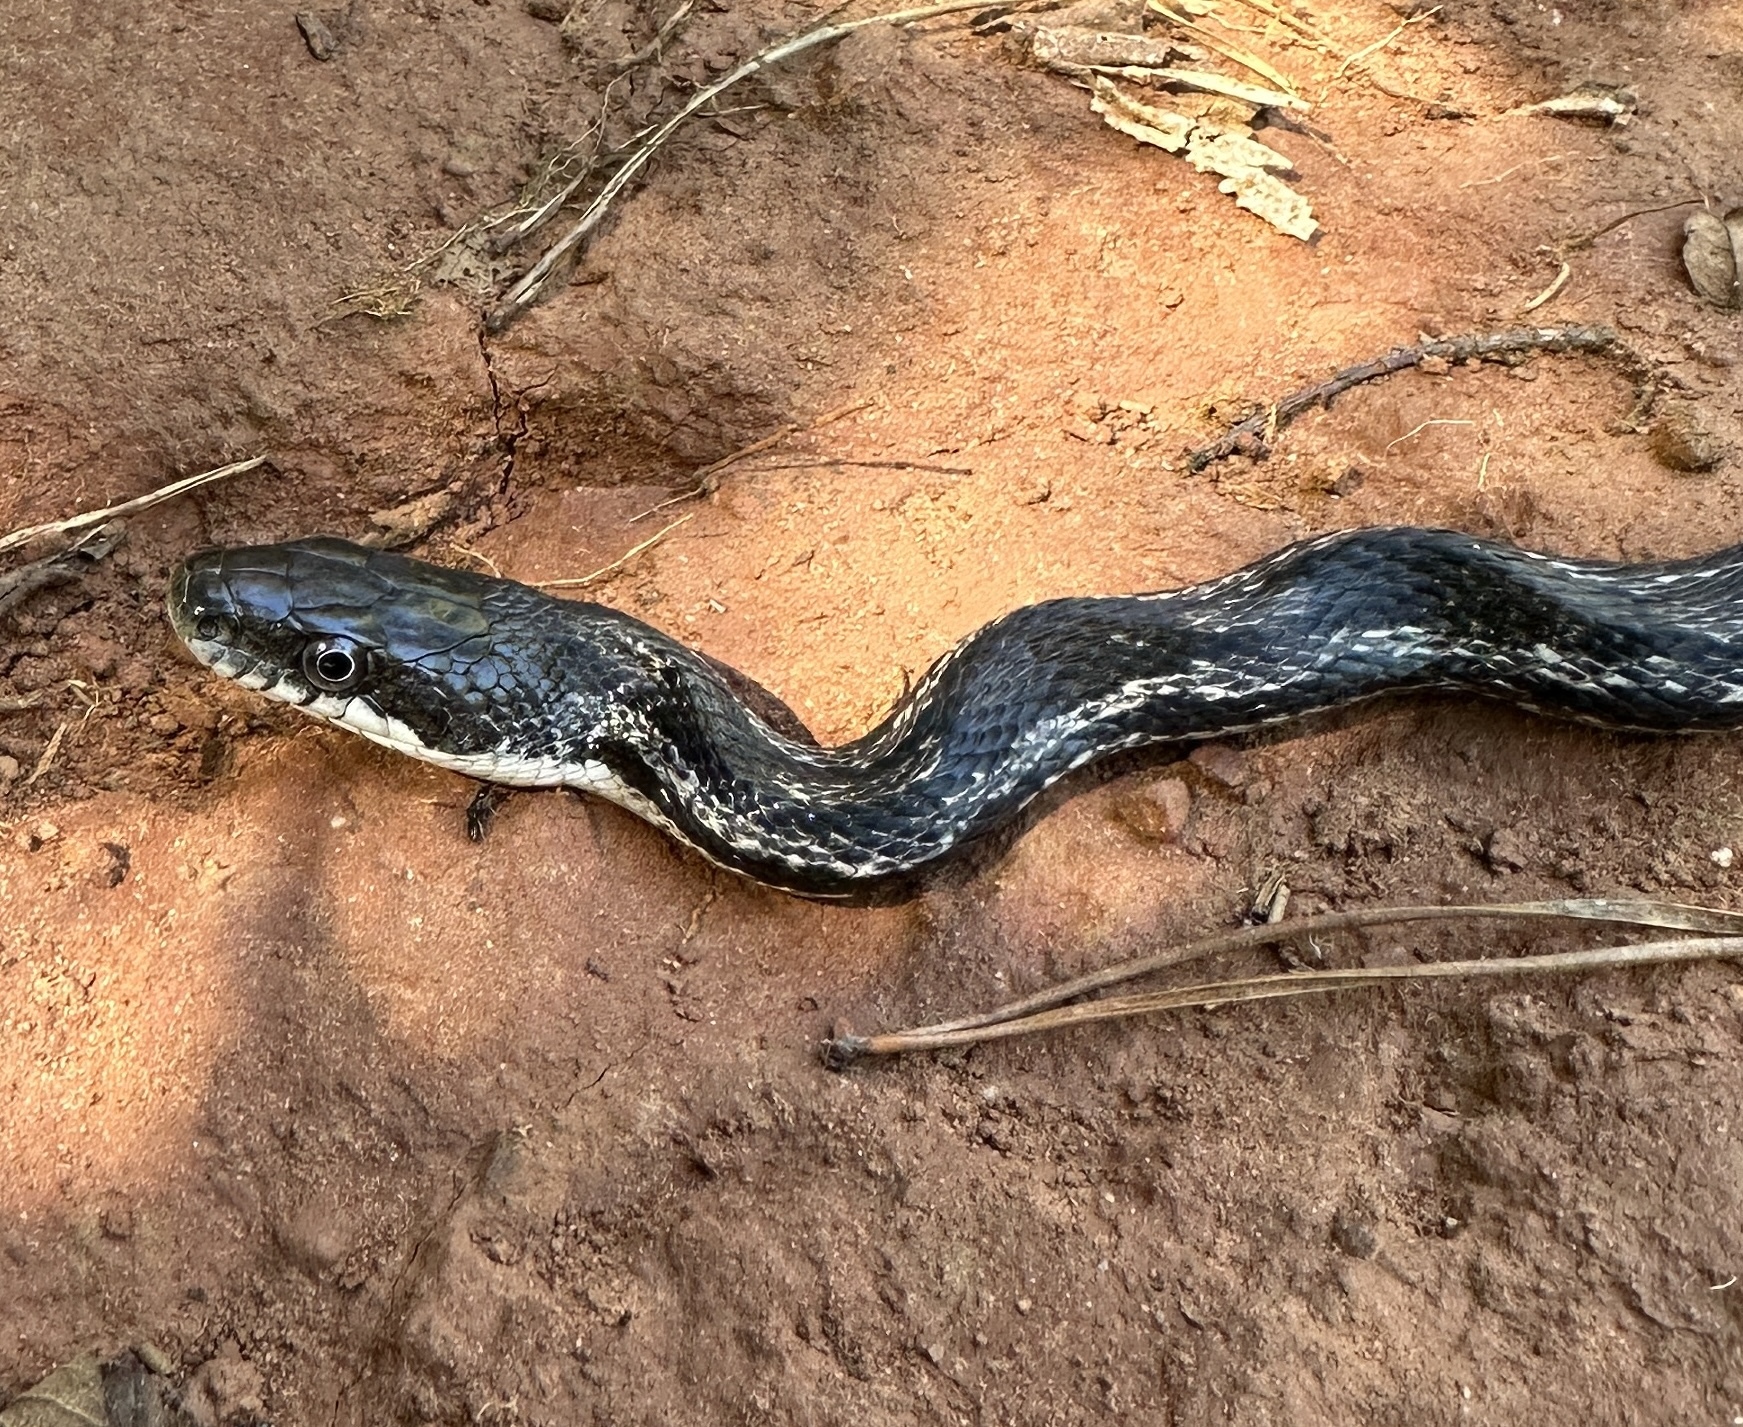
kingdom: Animalia
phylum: Chordata
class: Squamata
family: Colubridae
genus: Pantherophis
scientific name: Pantherophis spiloides
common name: Gray rat snake
